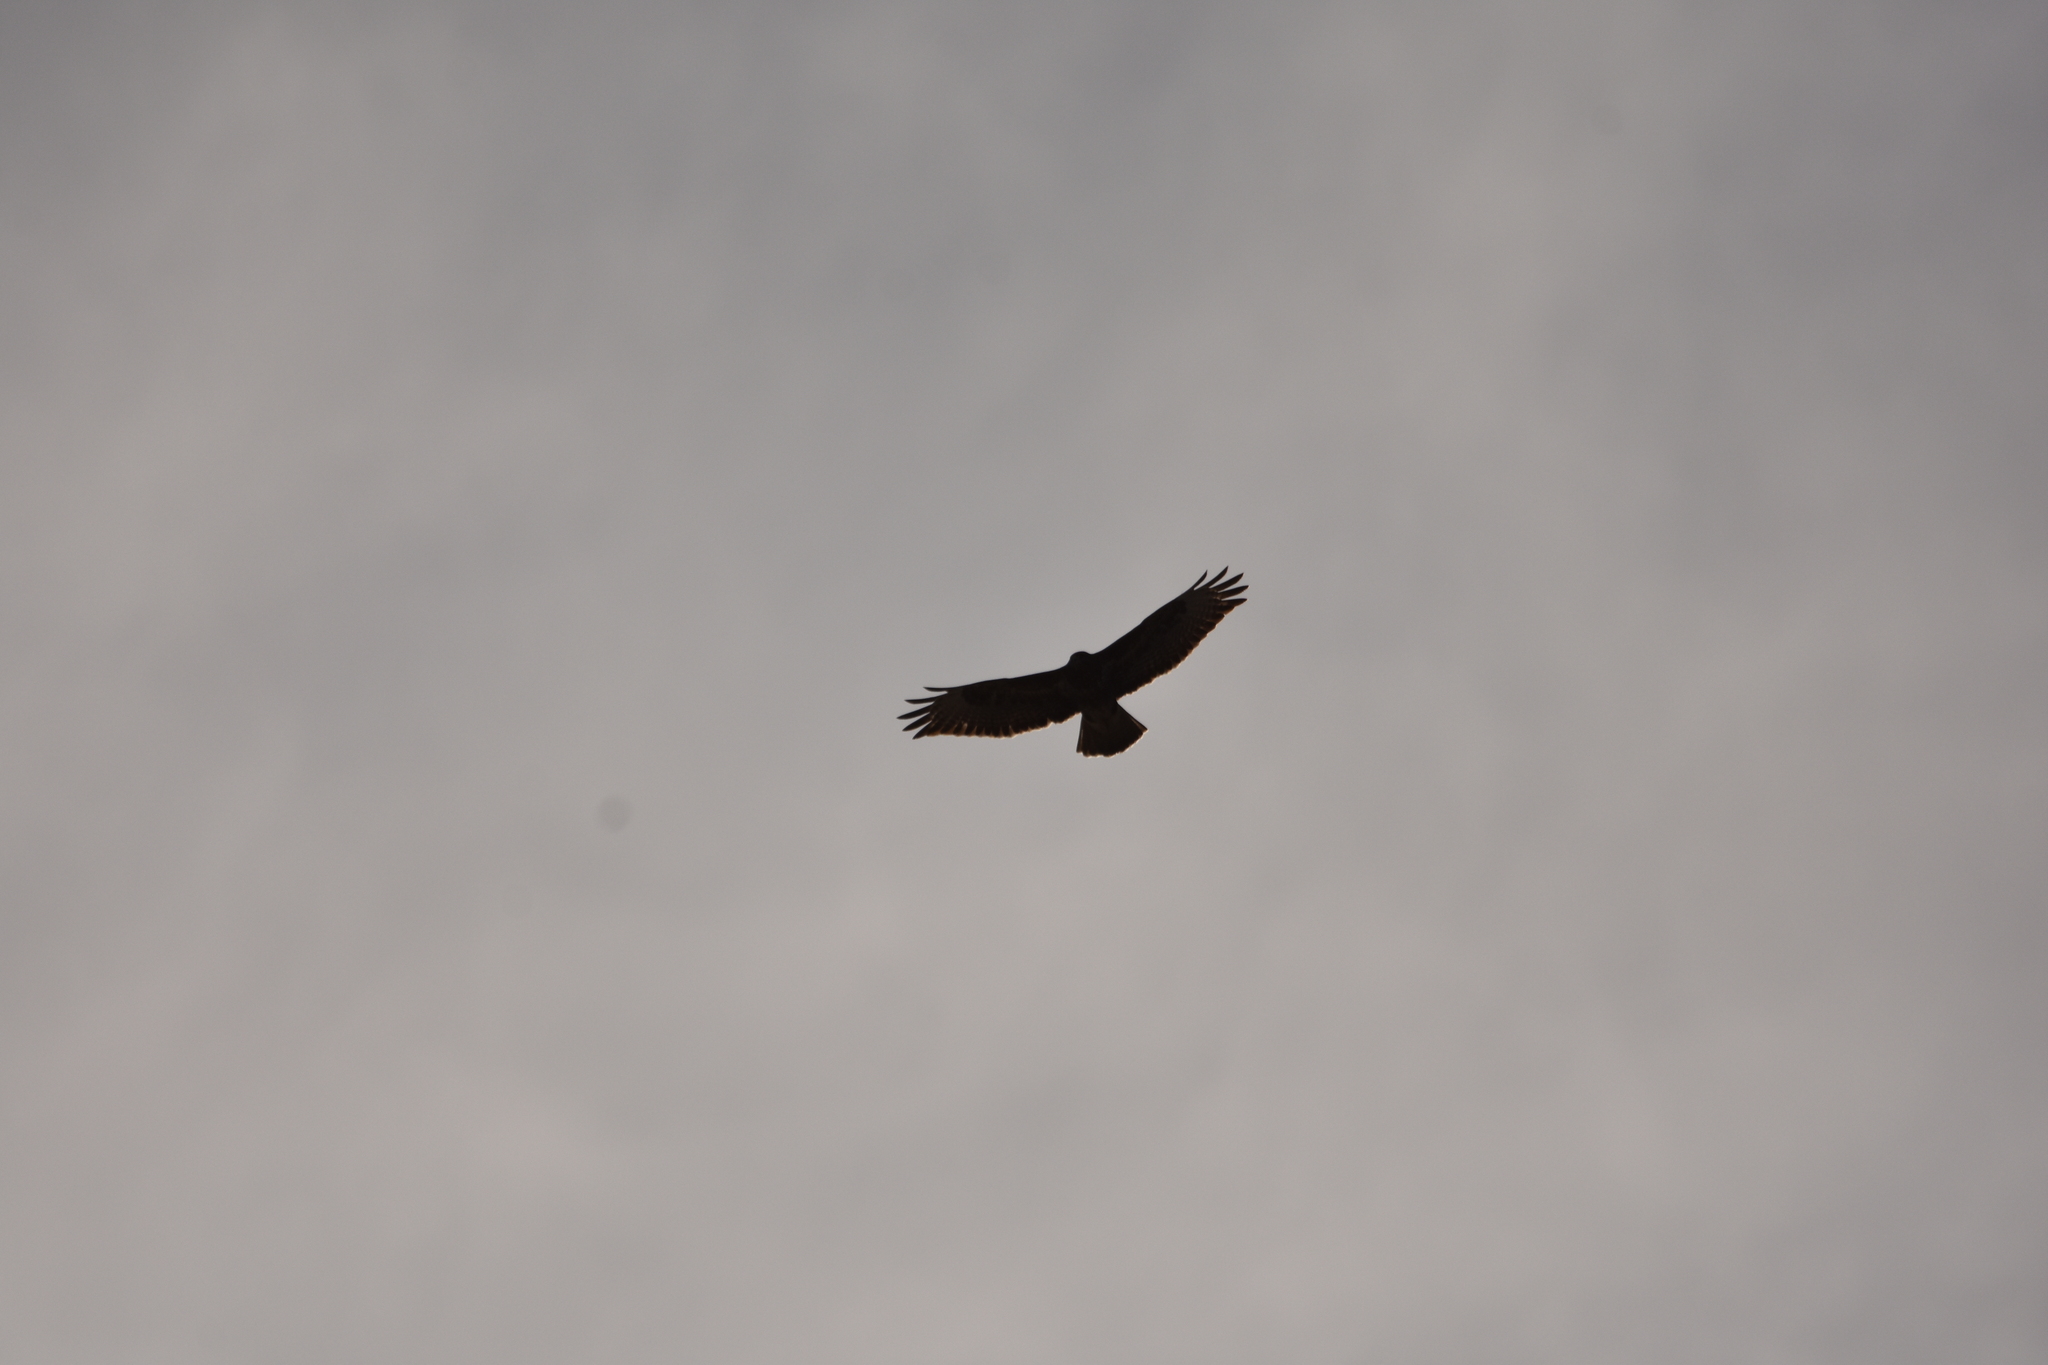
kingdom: Animalia
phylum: Chordata
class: Aves
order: Accipitriformes
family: Accipitridae
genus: Buteo
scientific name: Buteo buteo
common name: Common buzzard
